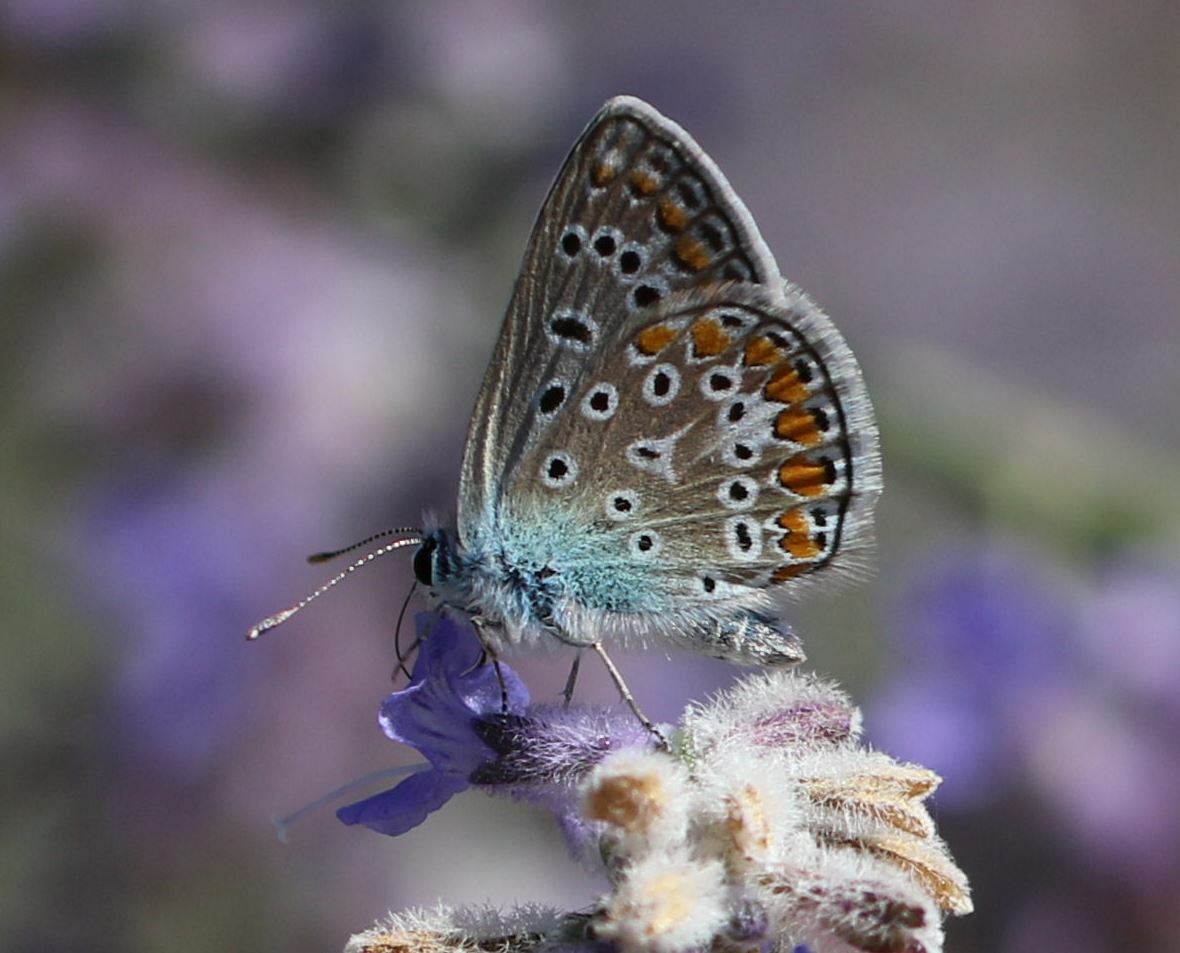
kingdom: Animalia
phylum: Arthropoda
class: Insecta
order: Lepidoptera
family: Lycaenidae
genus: Polyommatus
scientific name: Polyommatus icarus
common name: Common blue
